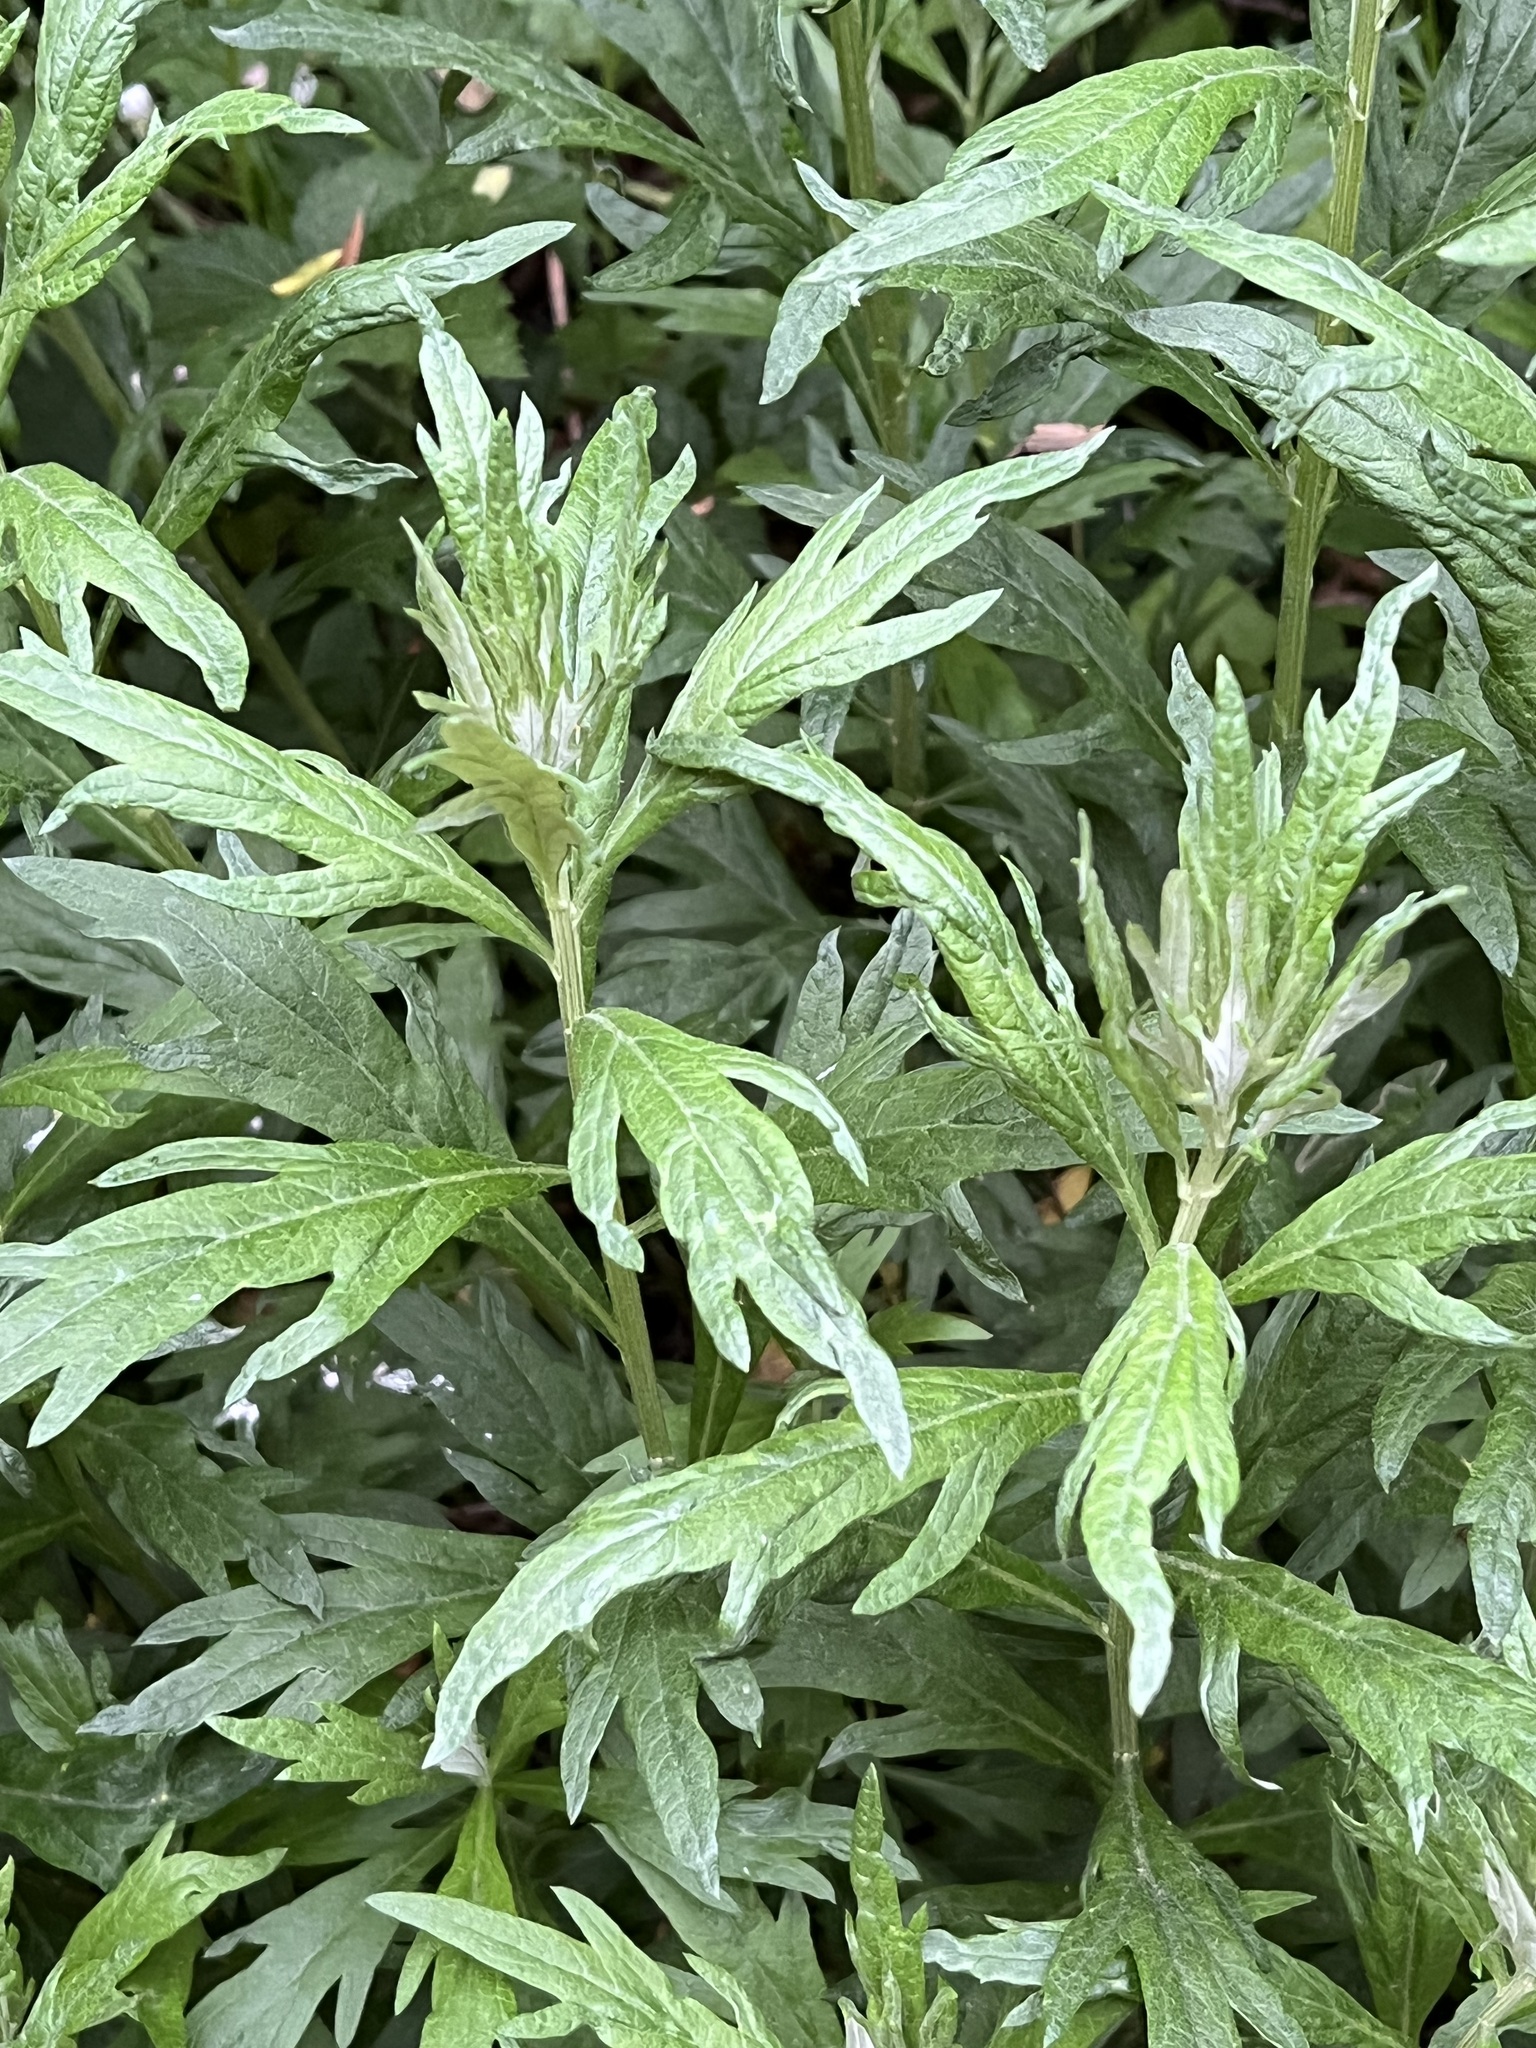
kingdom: Plantae
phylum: Tracheophyta
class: Magnoliopsida
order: Asterales
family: Asteraceae
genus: Artemisia
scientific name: Artemisia douglasiana
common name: Northwest mugwort
